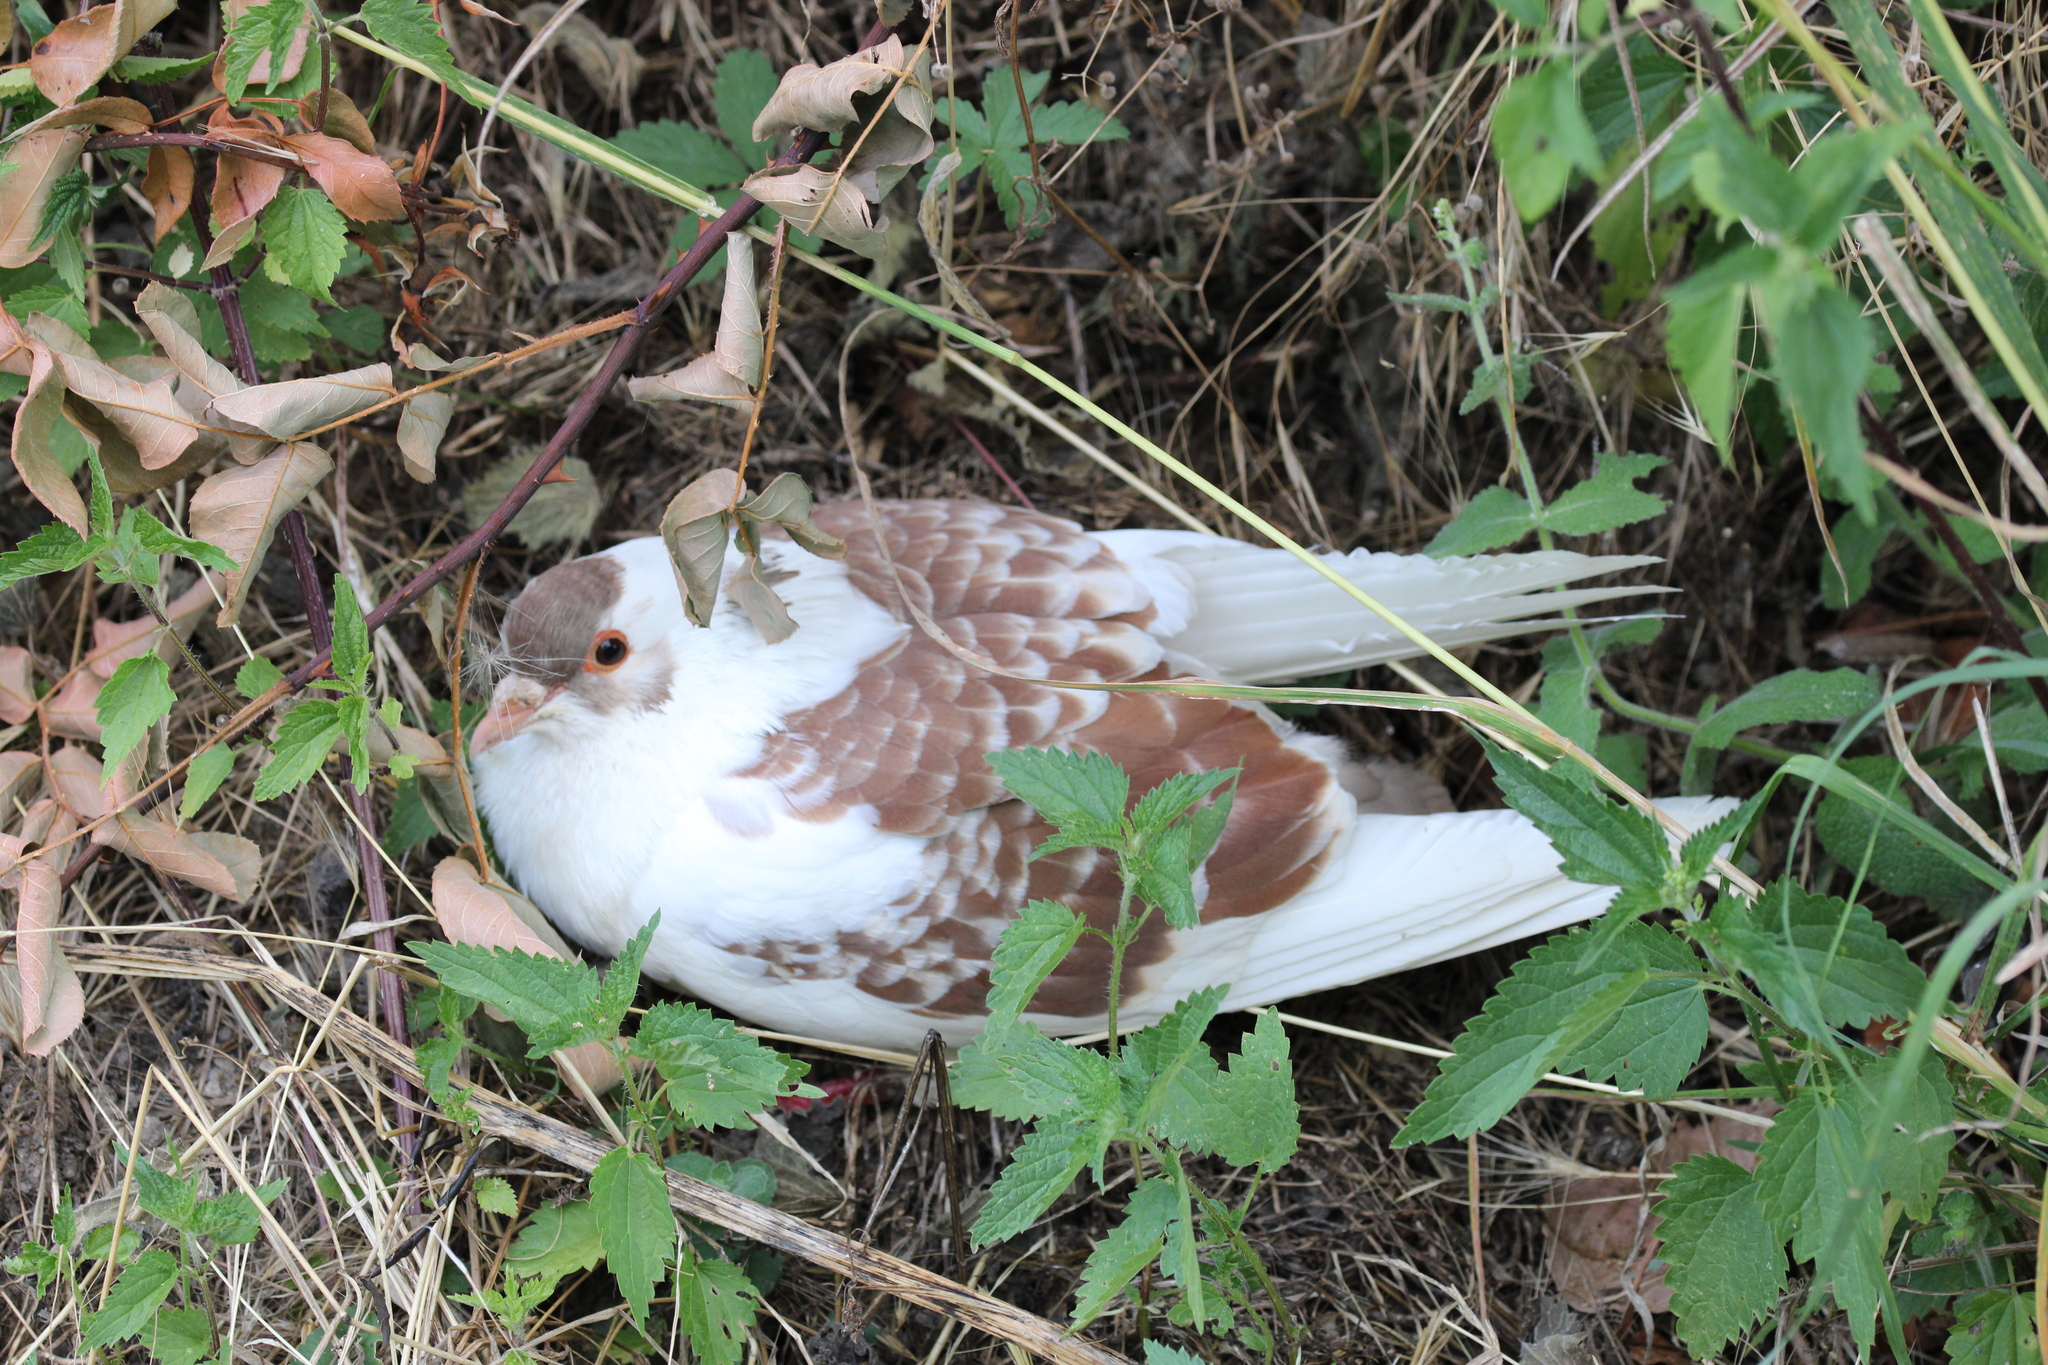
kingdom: Animalia
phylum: Chordata
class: Aves
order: Columbiformes
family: Columbidae
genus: Columba
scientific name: Columba livia
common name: Rock pigeon
